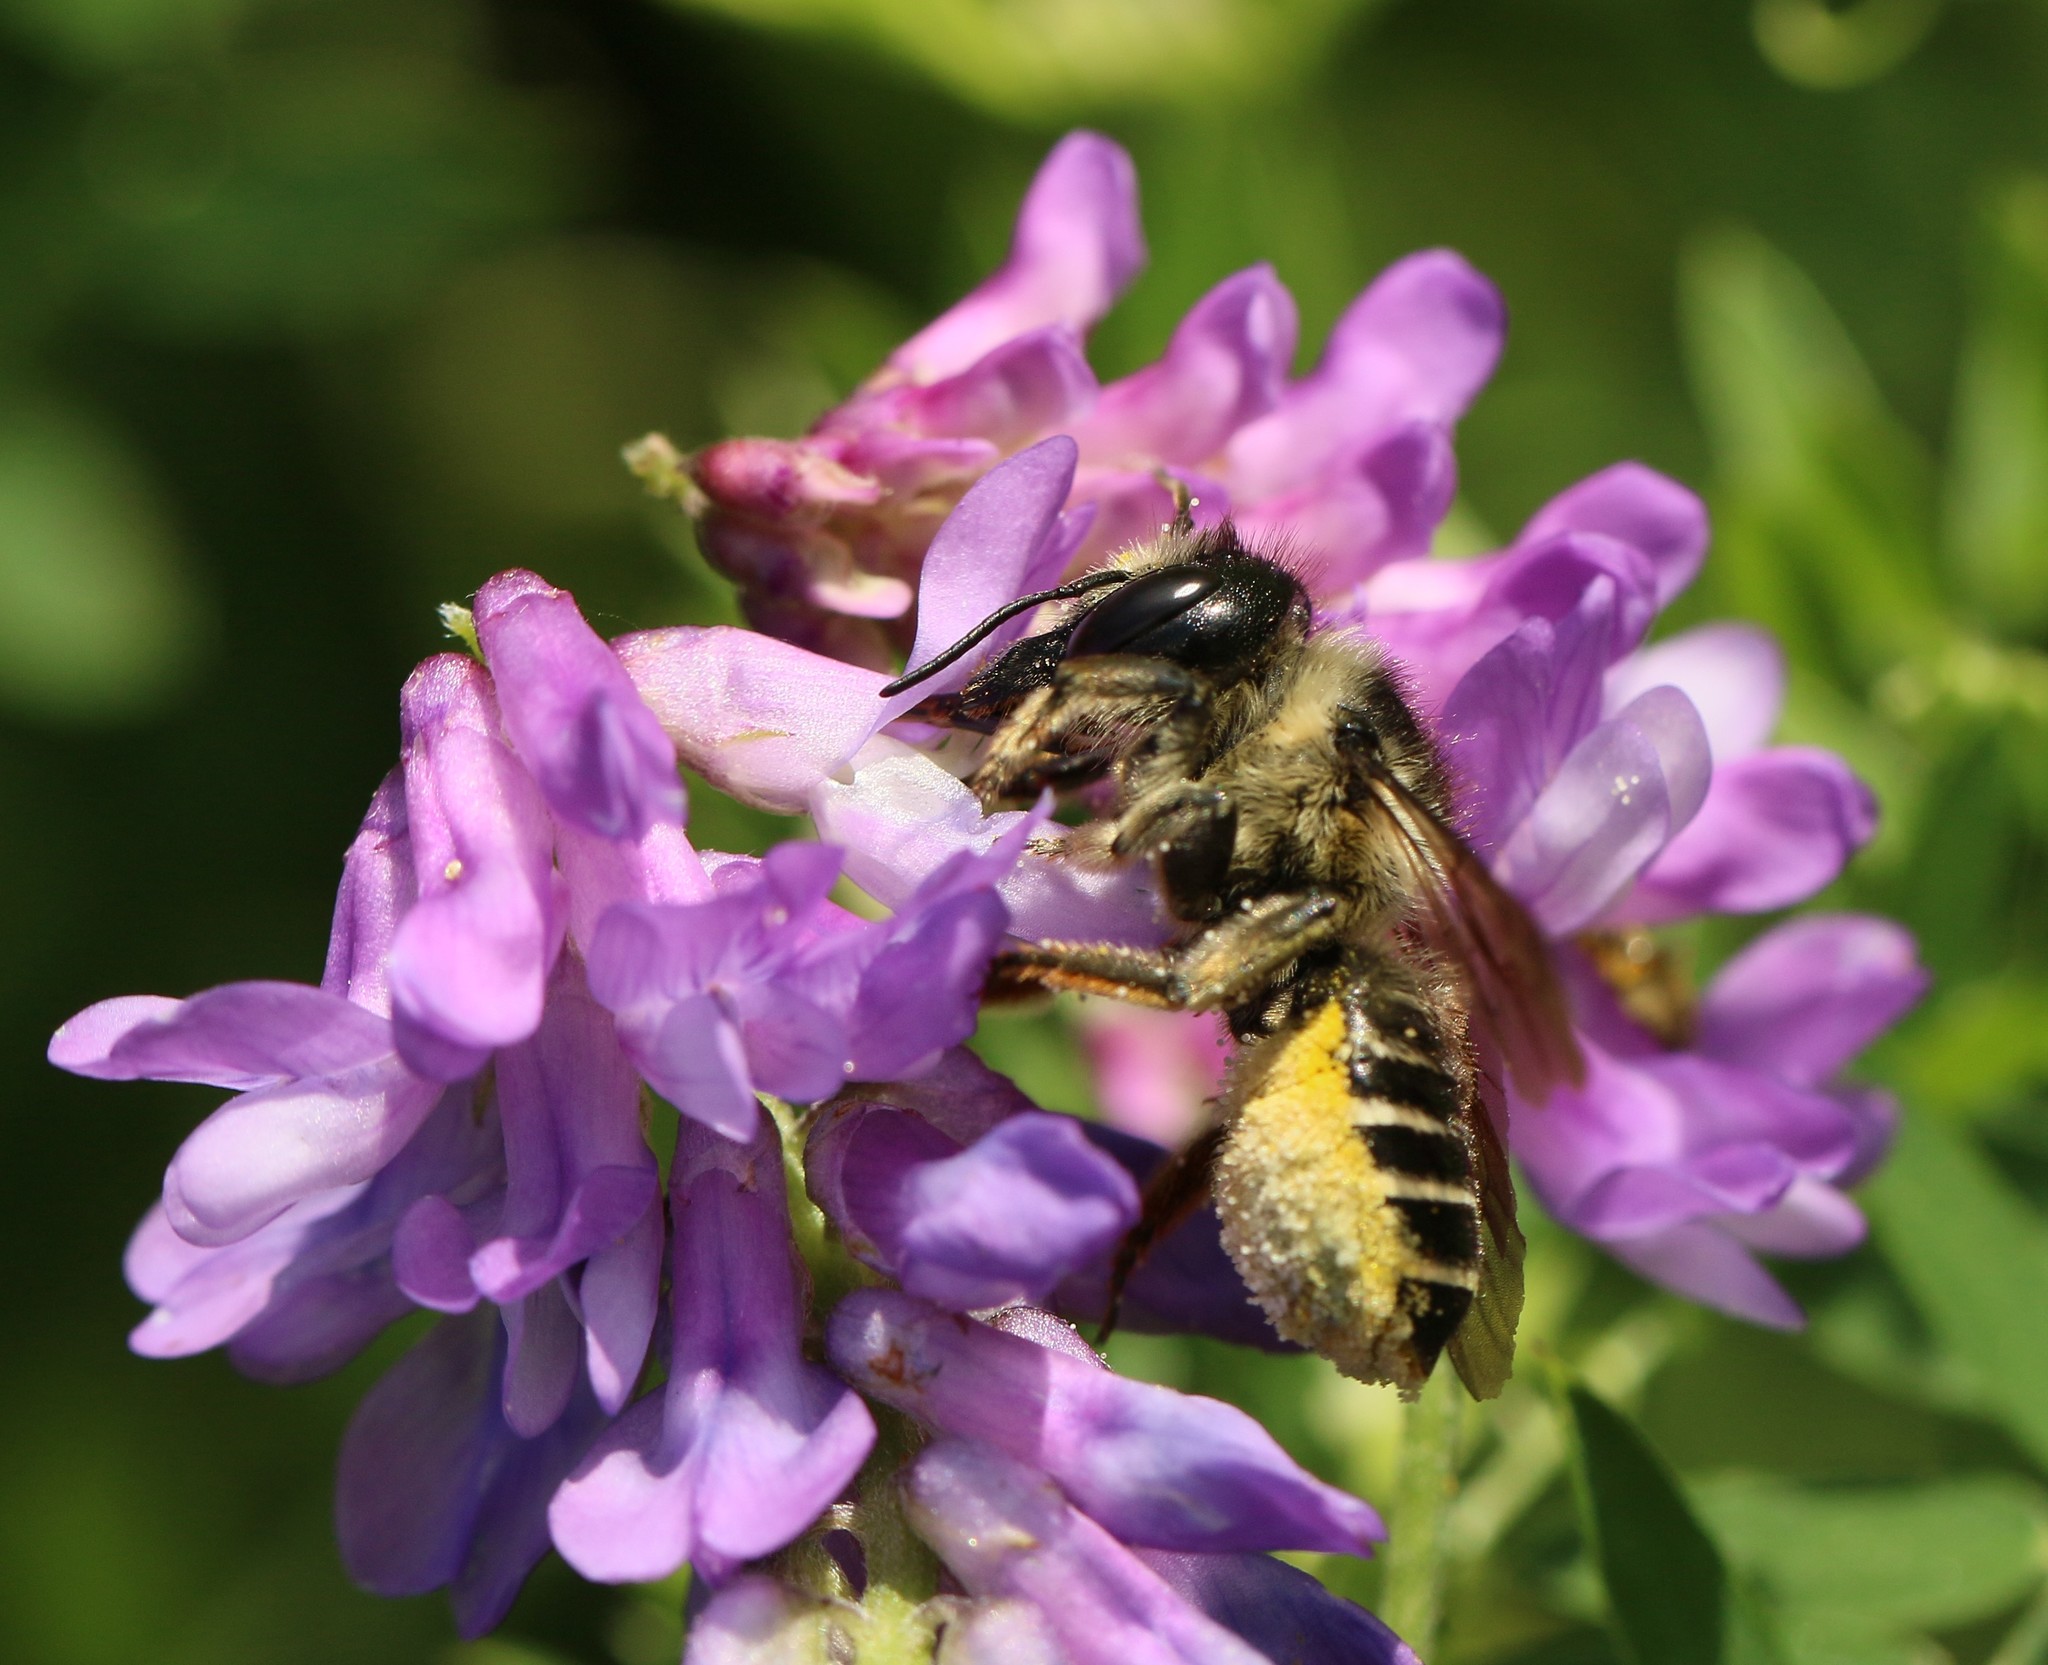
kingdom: Animalia
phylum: Arthropoda
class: Insecta
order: Hymenoptera
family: Megachilidae
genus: Megachile
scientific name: Megachile inermis
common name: Unarmed leafcutter bee
